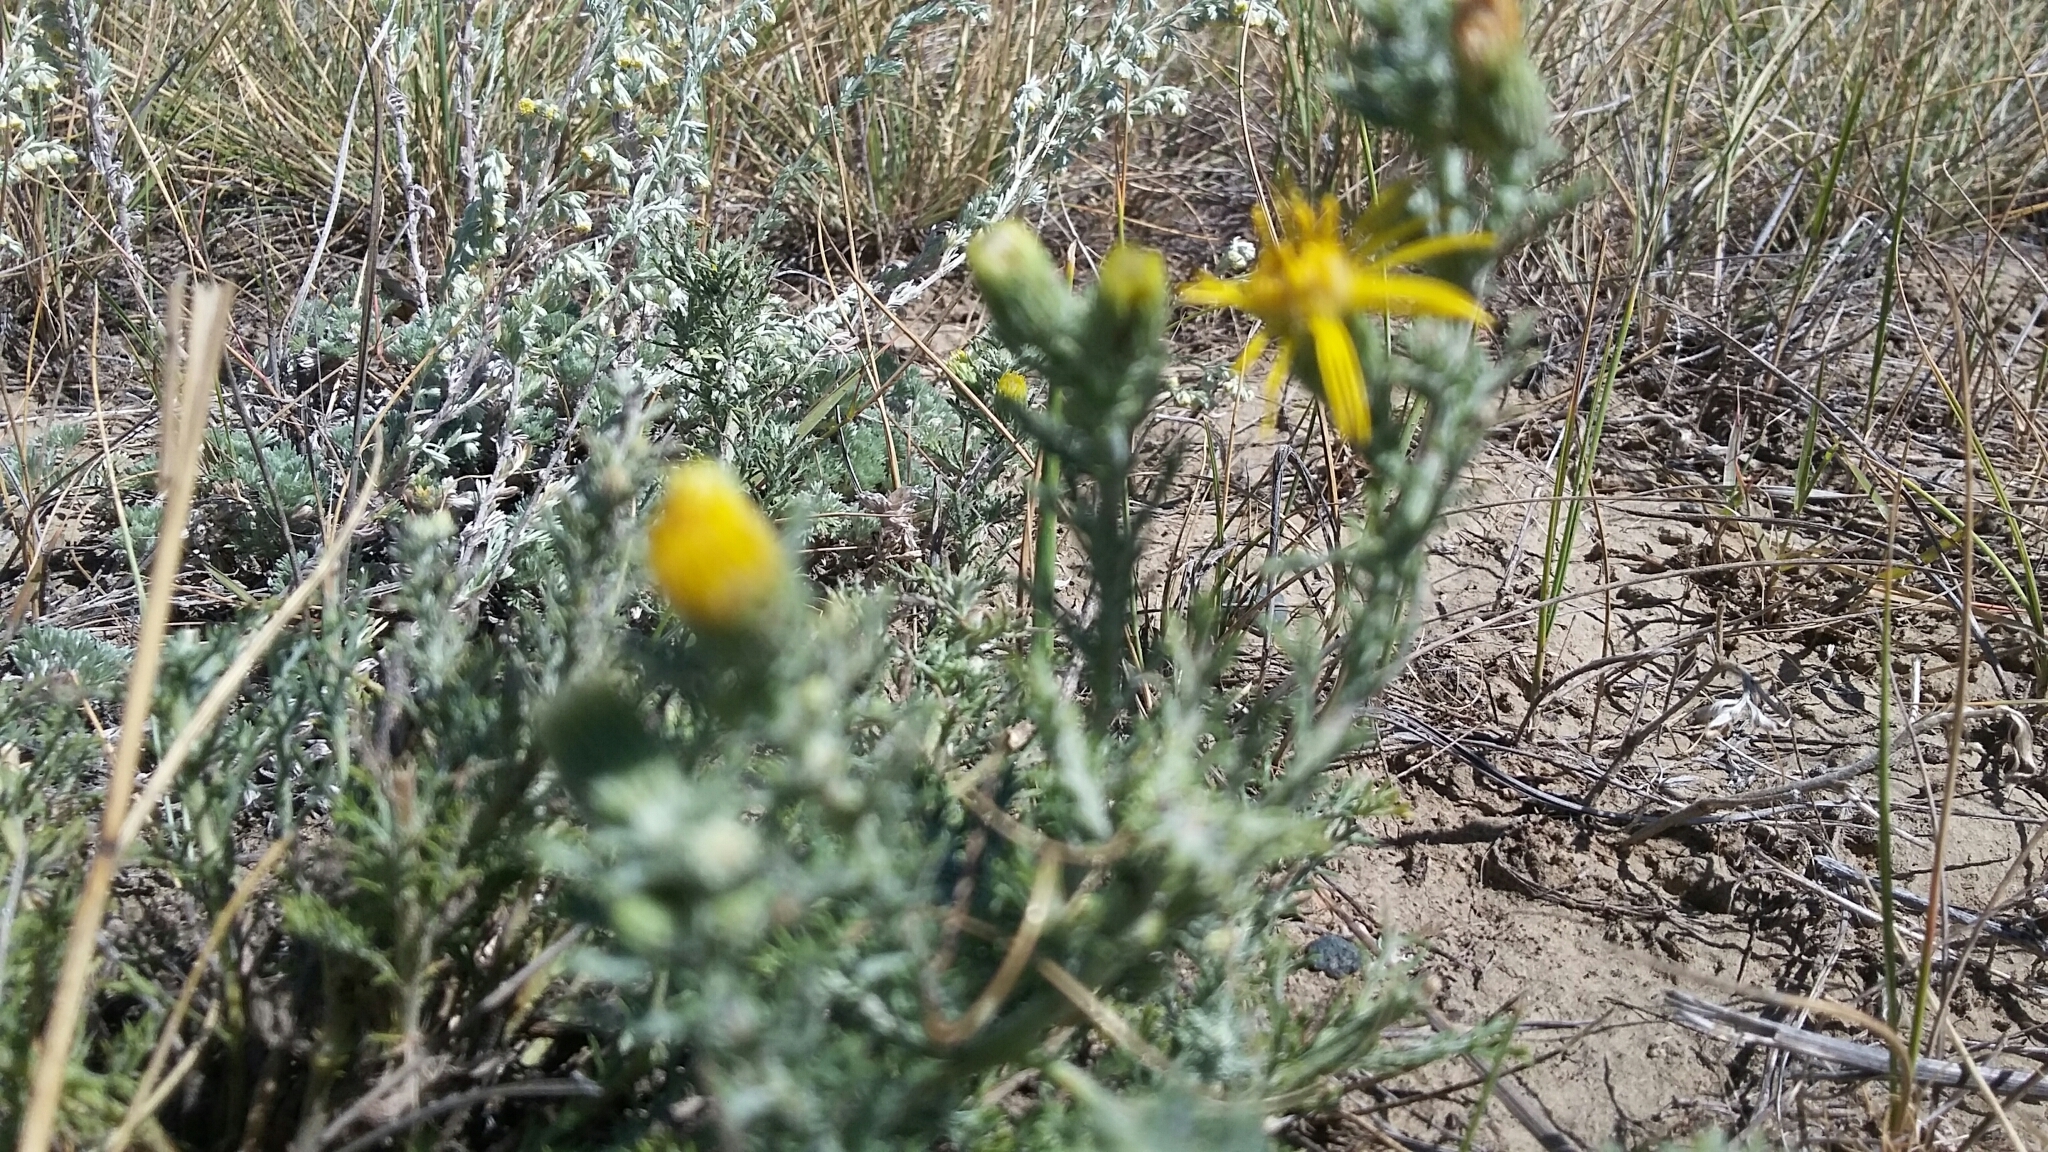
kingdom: Plantae
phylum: Tracheophyta
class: Magnoliopsida
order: Asterales
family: Asteraceae
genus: Xanthisma
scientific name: Xanthisma spinulosum
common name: Spiny goldenweed
